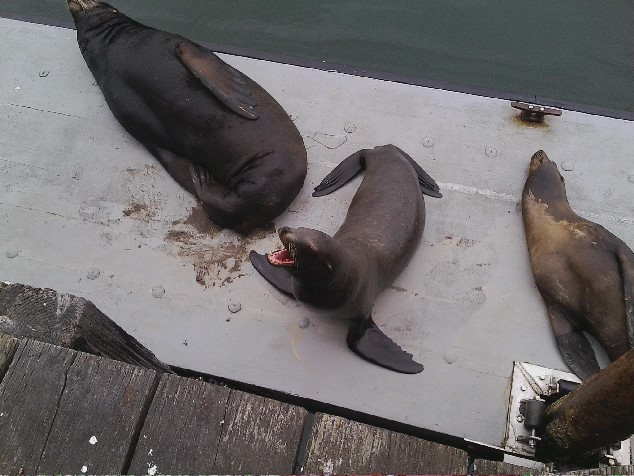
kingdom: Animalia
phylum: Chordata
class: Mammalia
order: Carnivora
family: Otariidae
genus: Zalophus
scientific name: Zalophus californianus
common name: California sea lion
